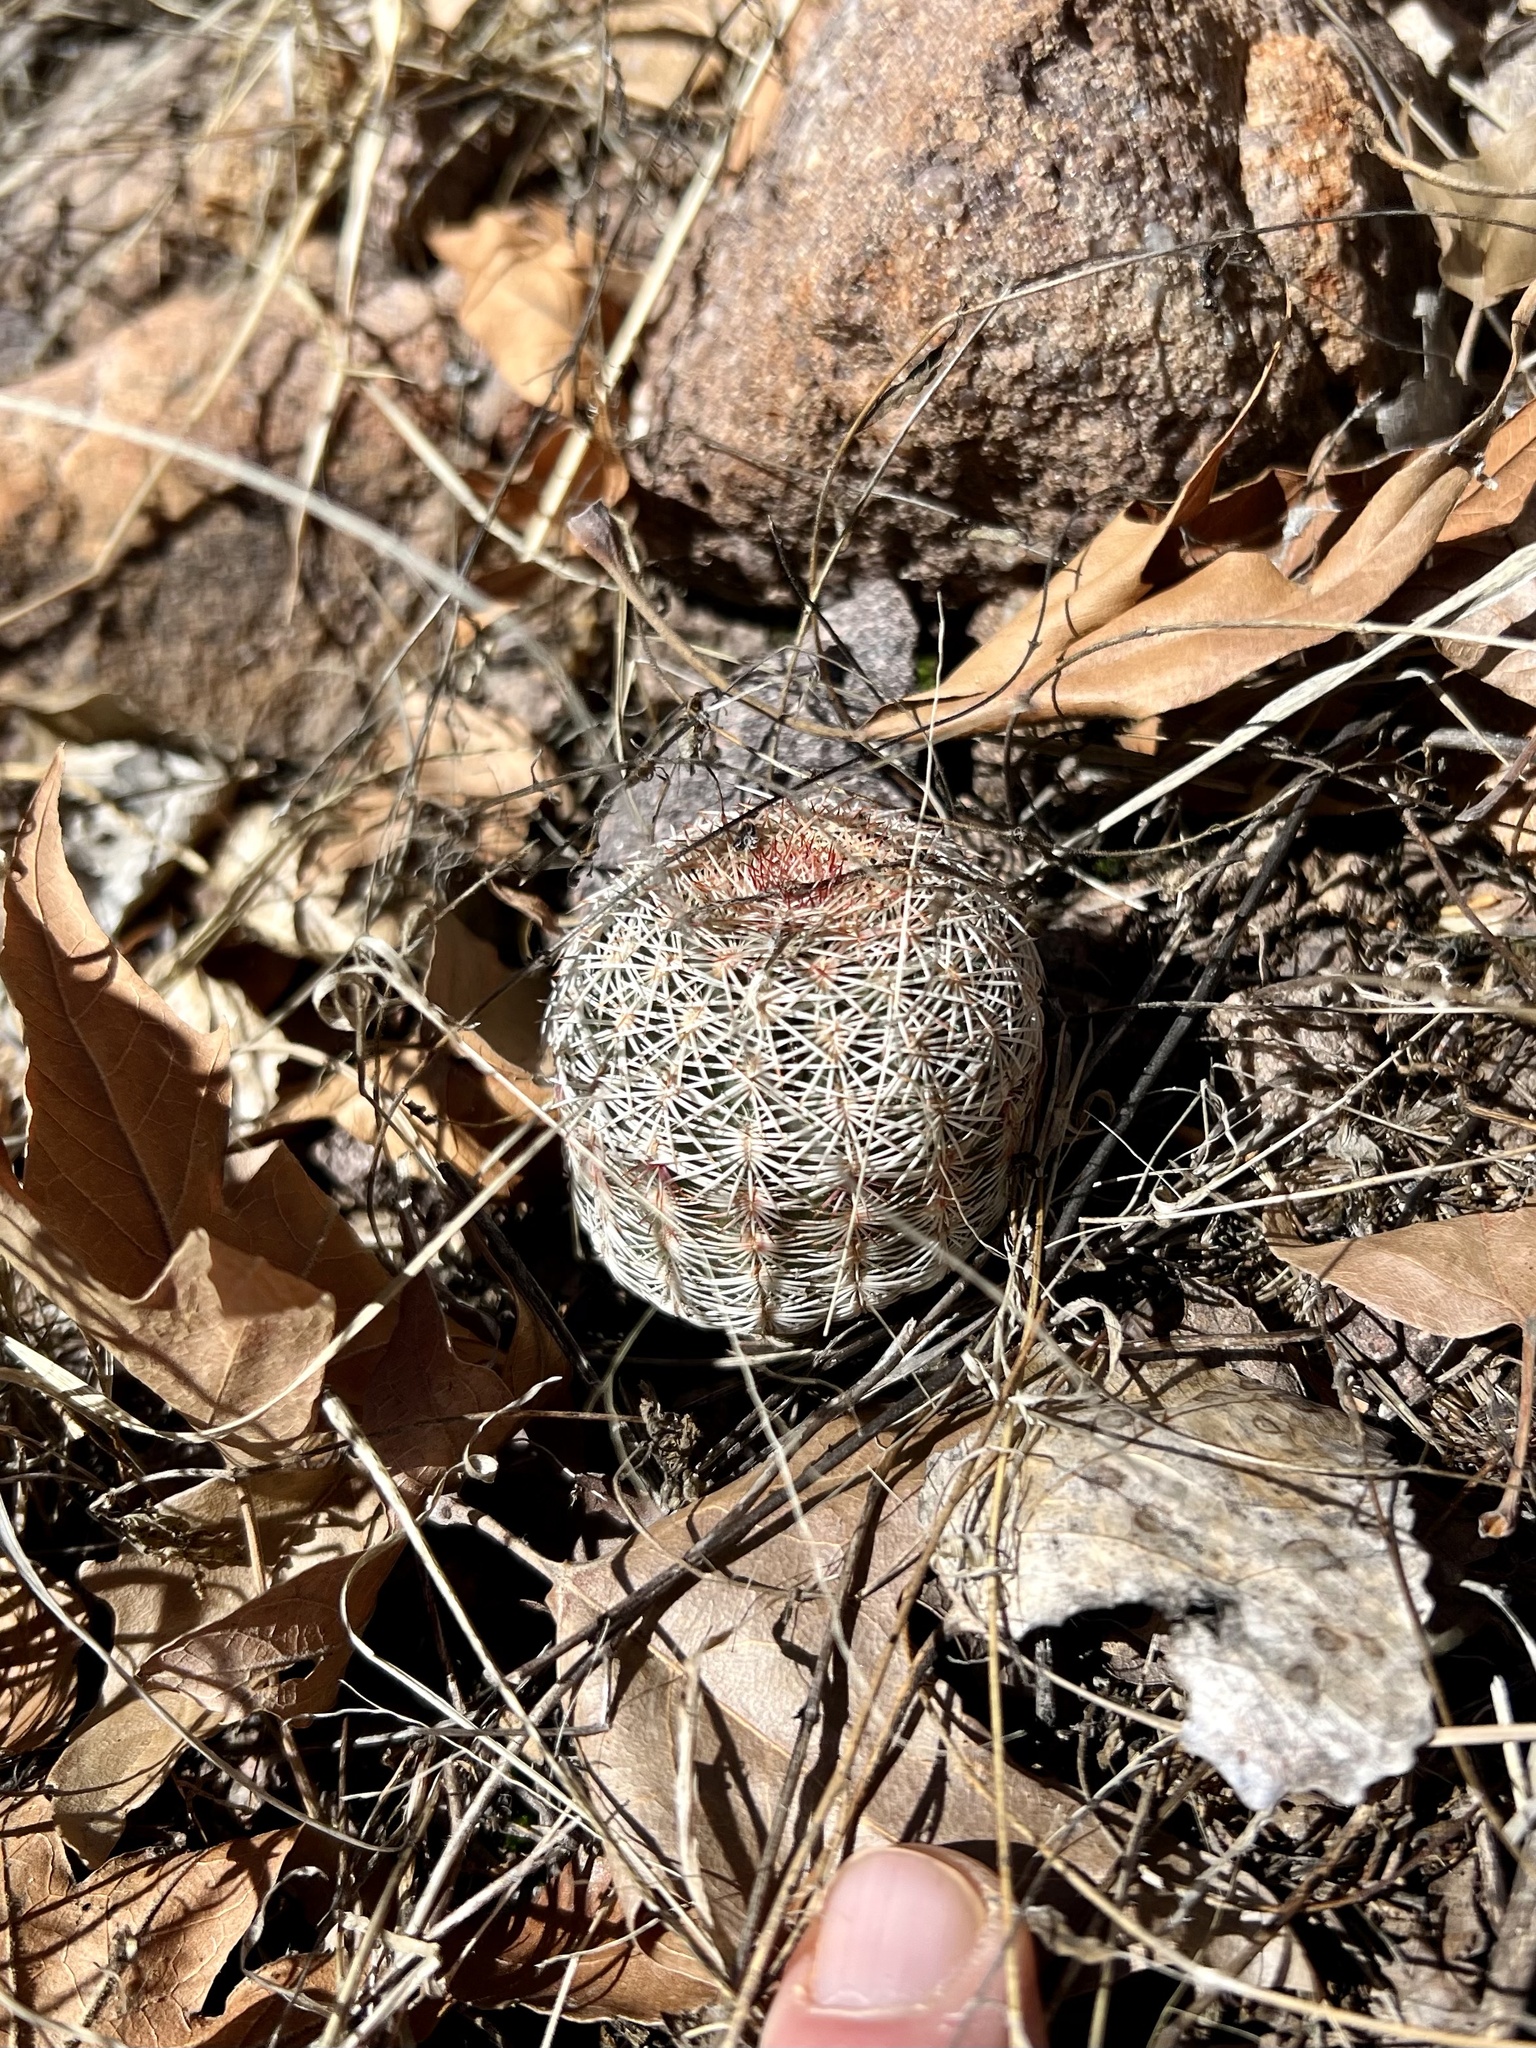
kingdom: Plantae
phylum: Tracheophyta
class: Magnoliopsida
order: Caryophyllales
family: Cactaceae
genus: Echinocereus
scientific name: Echinocereus rigidissimus
